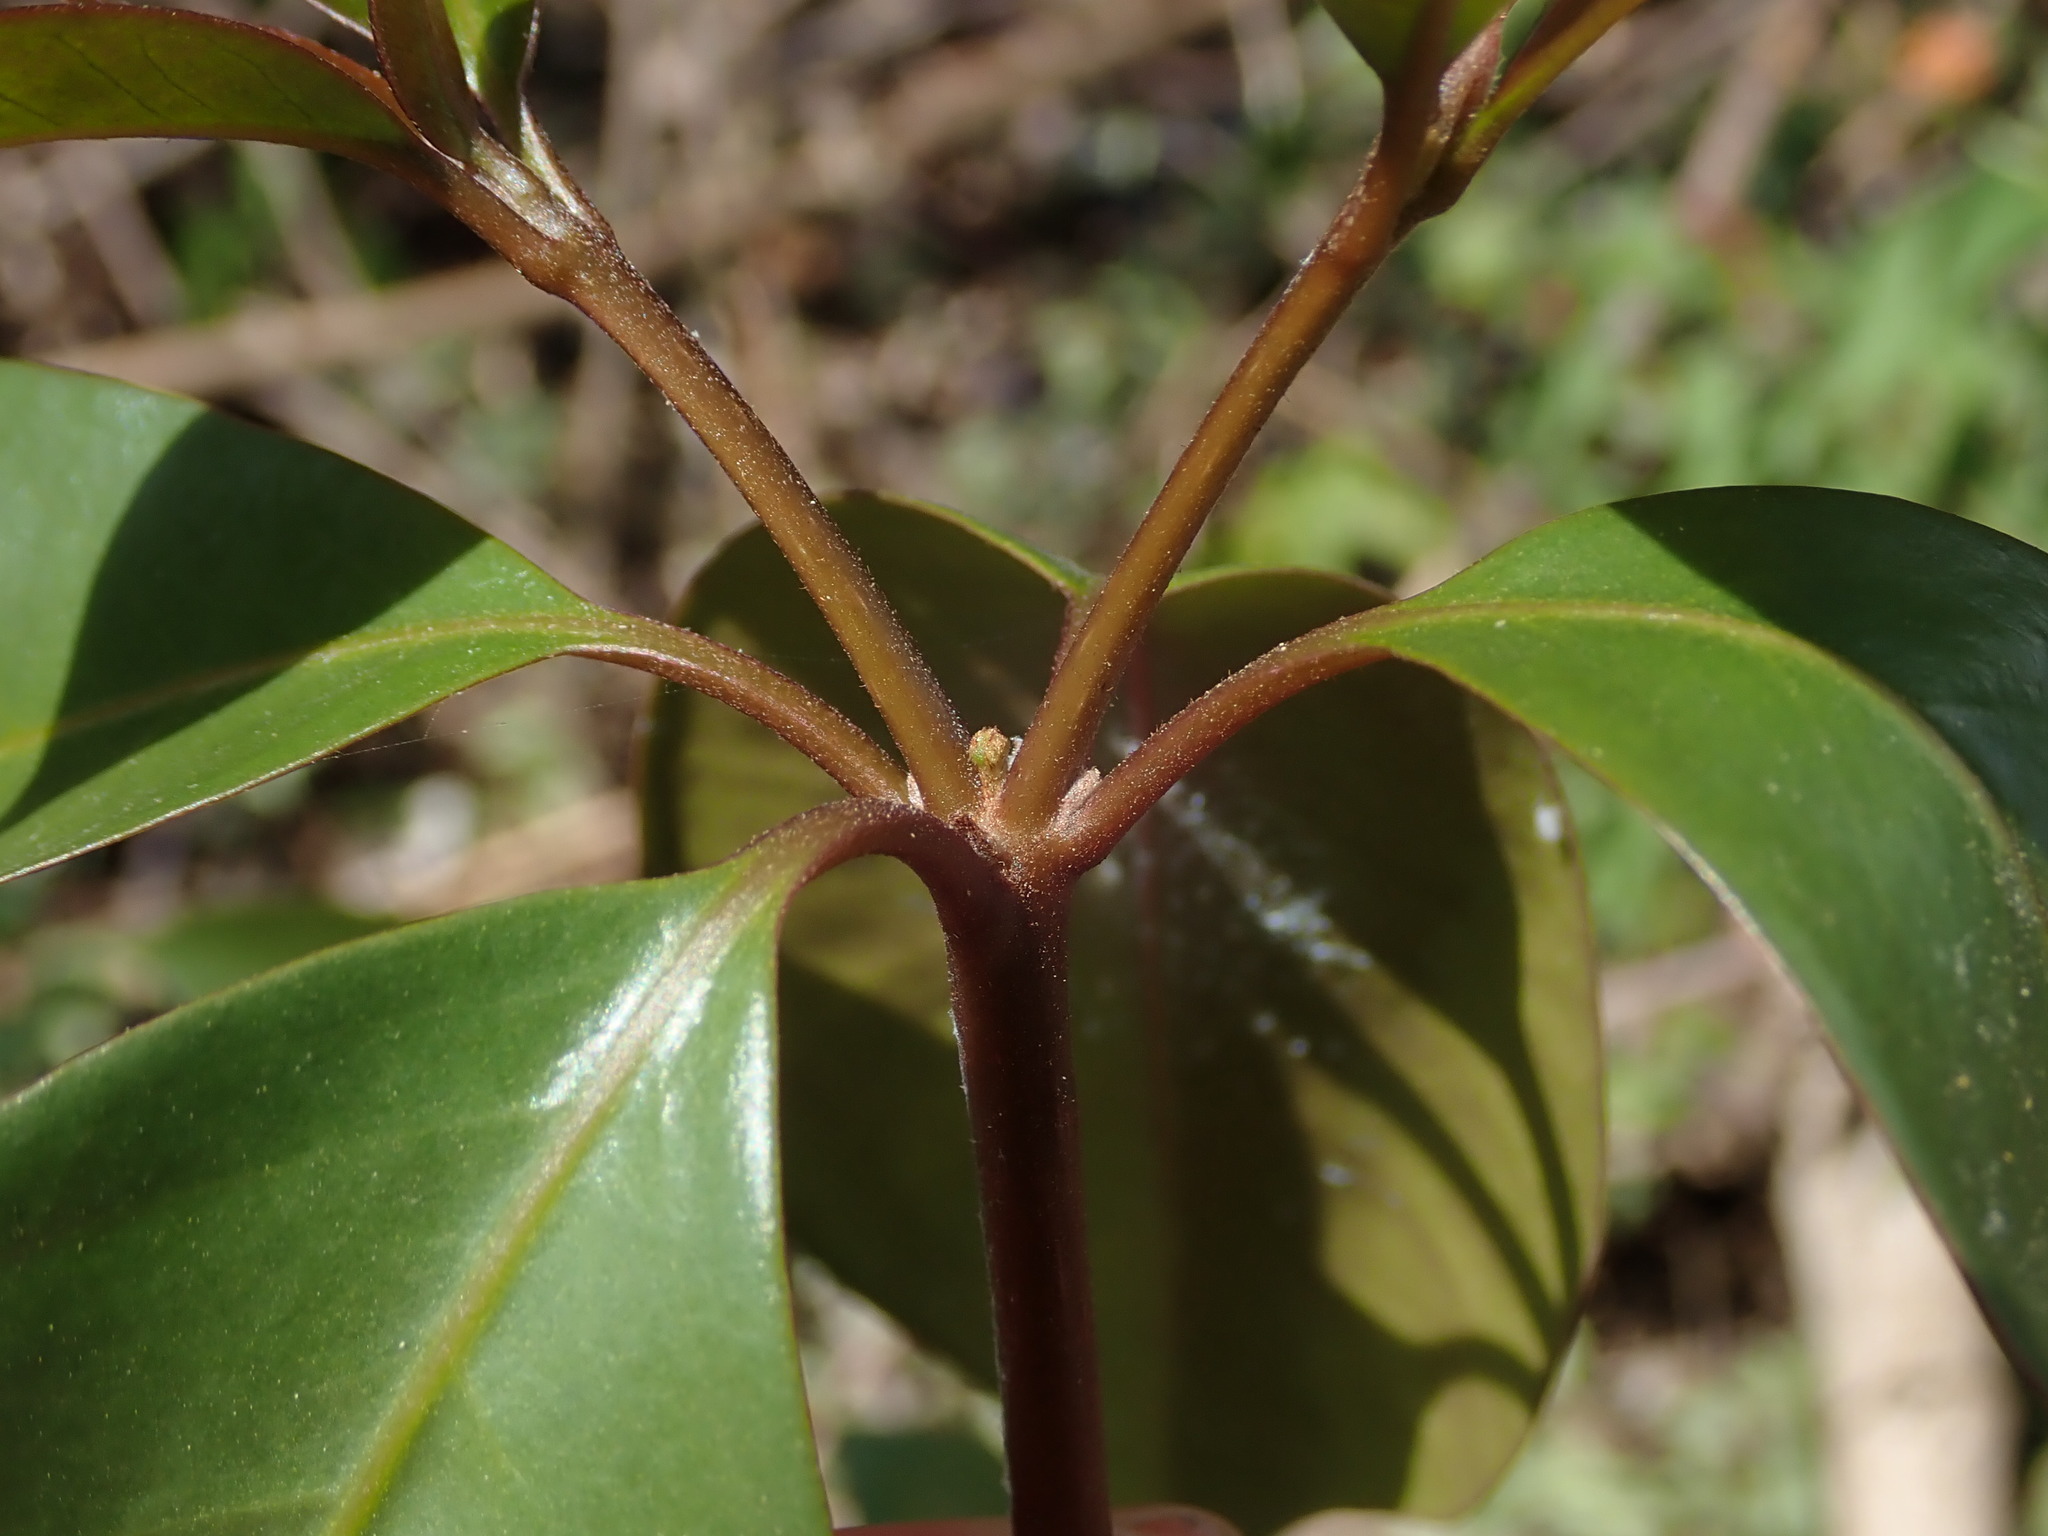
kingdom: Plantae
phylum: Tracheophyta
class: Magnoliopsida
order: Caryophyllales
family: Nyctaginaceae
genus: Guapira
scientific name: Guapira fragrans
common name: Black loblolly tree
